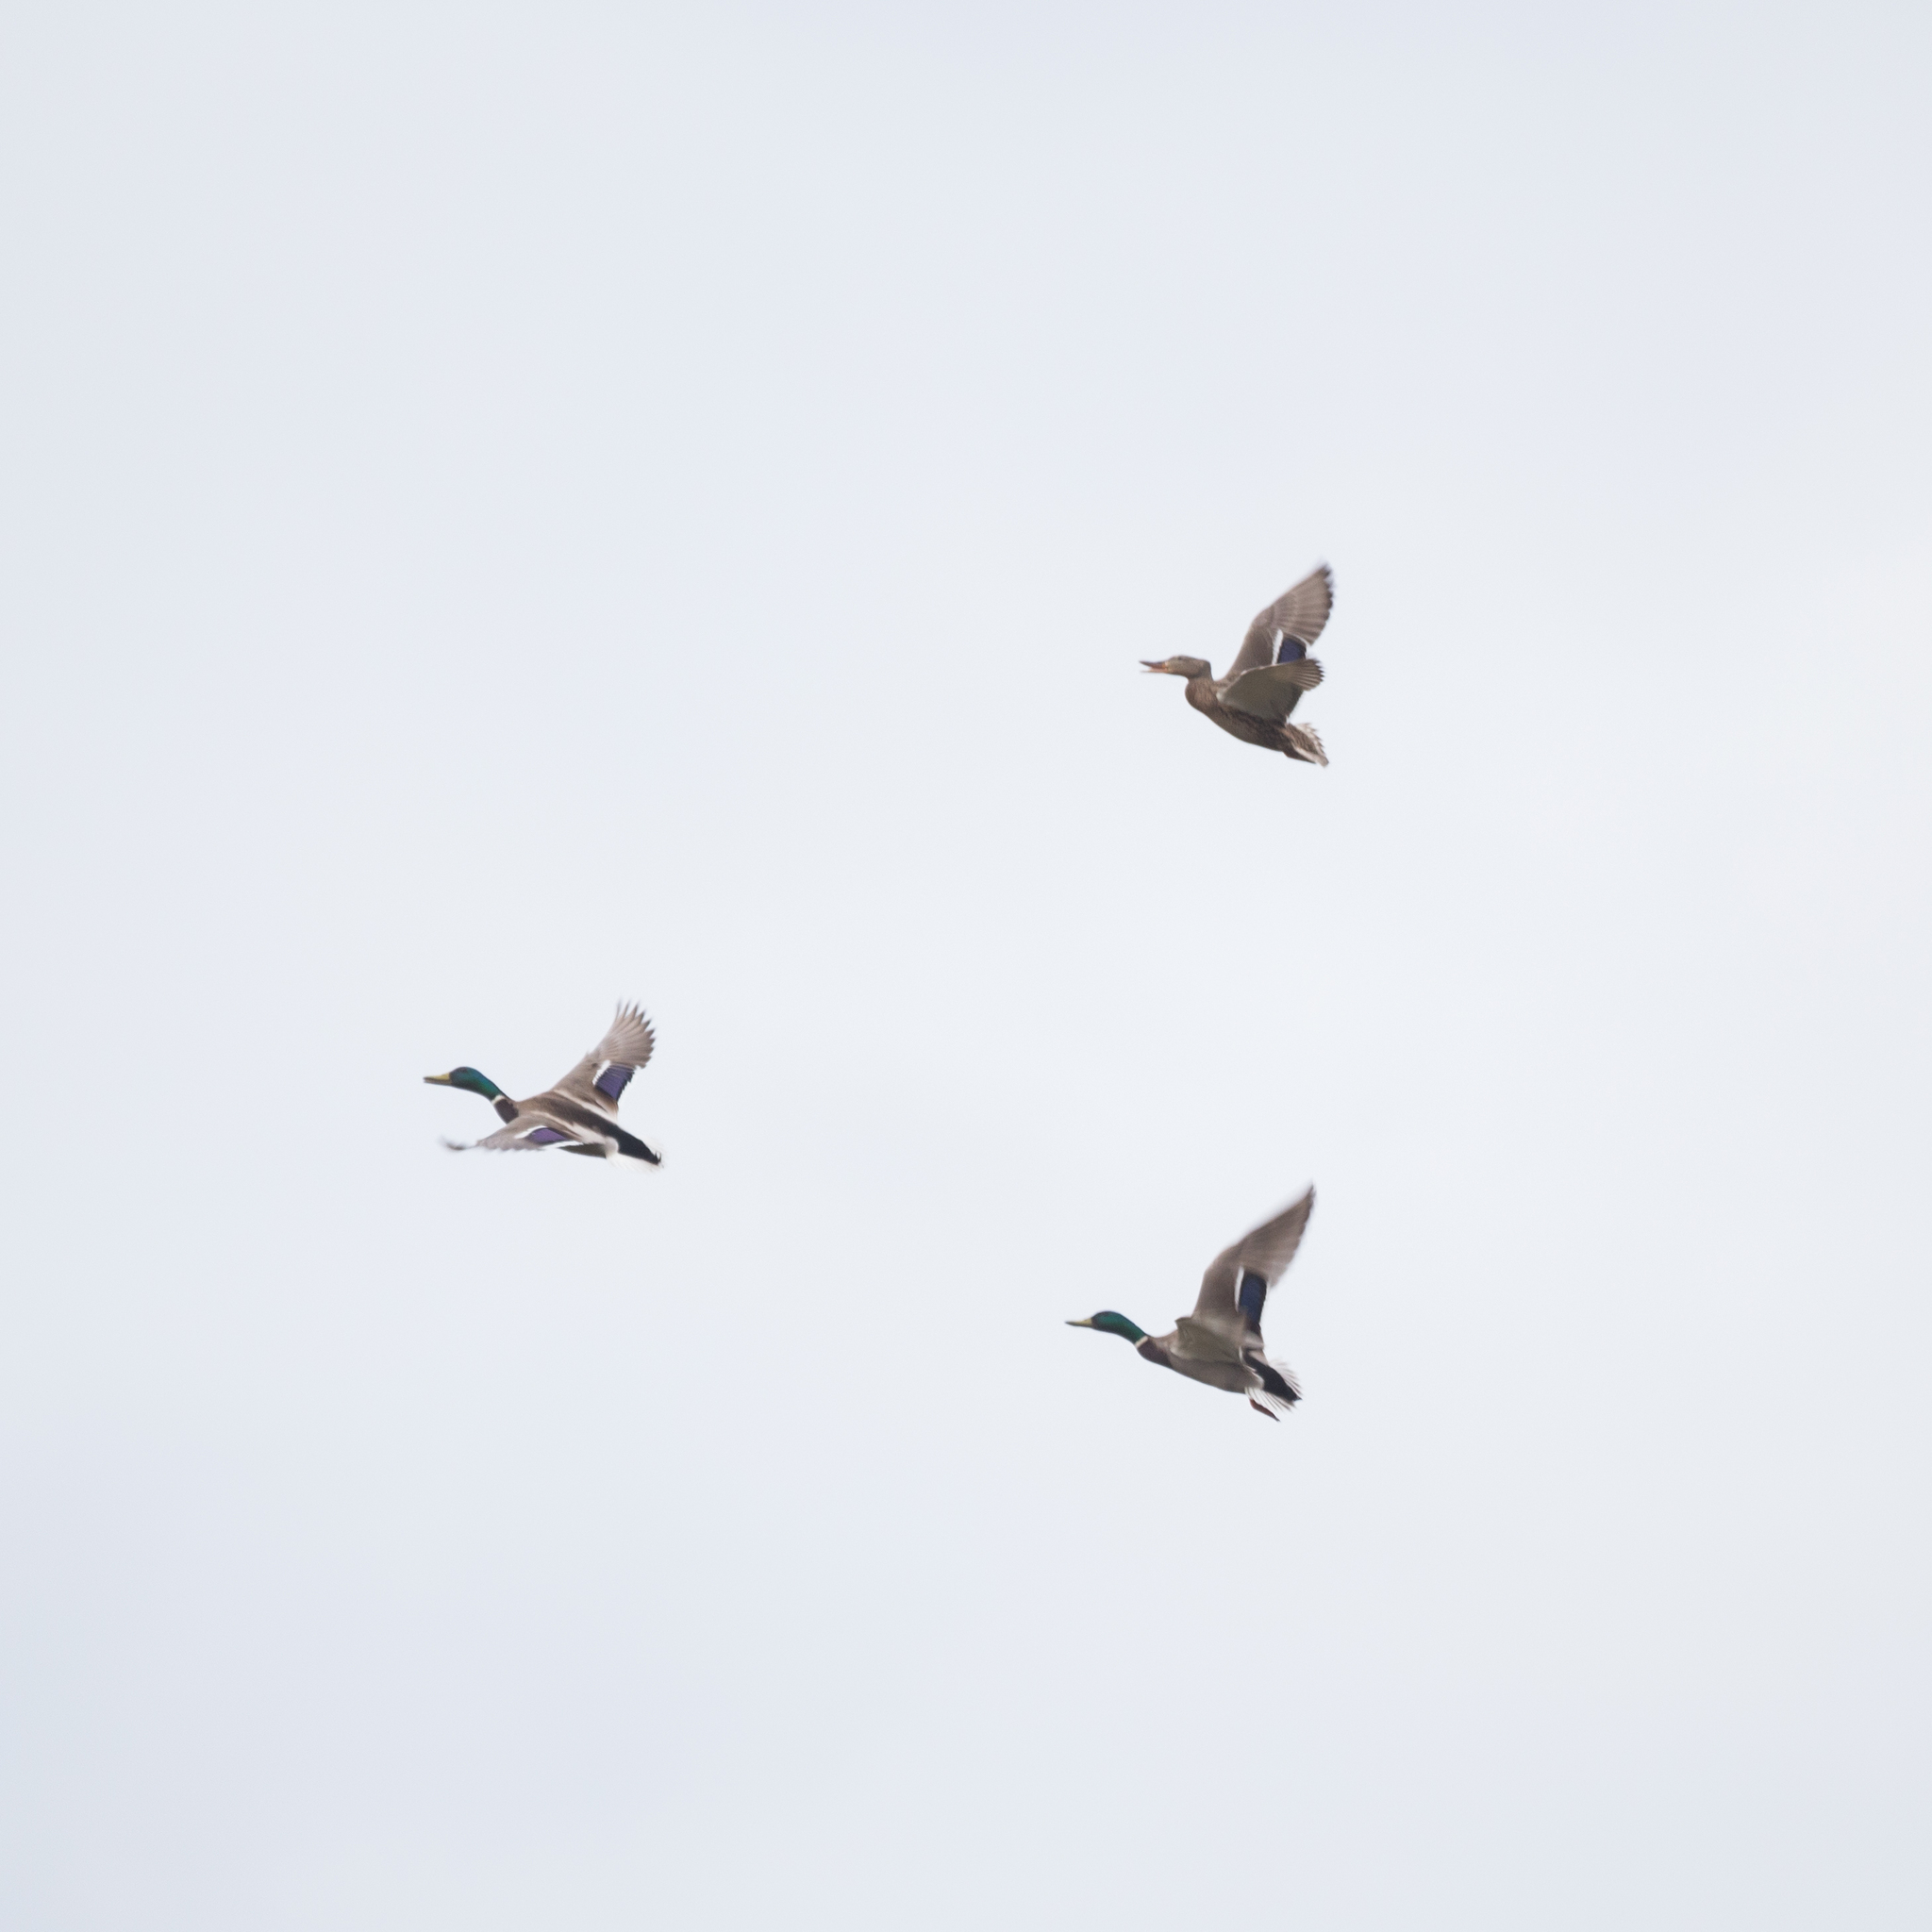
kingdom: Animalia
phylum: Chordata
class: Aves
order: Anseriformes
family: Anatidae
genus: Anas
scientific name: Anas platyrhynchos
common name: Mallard
